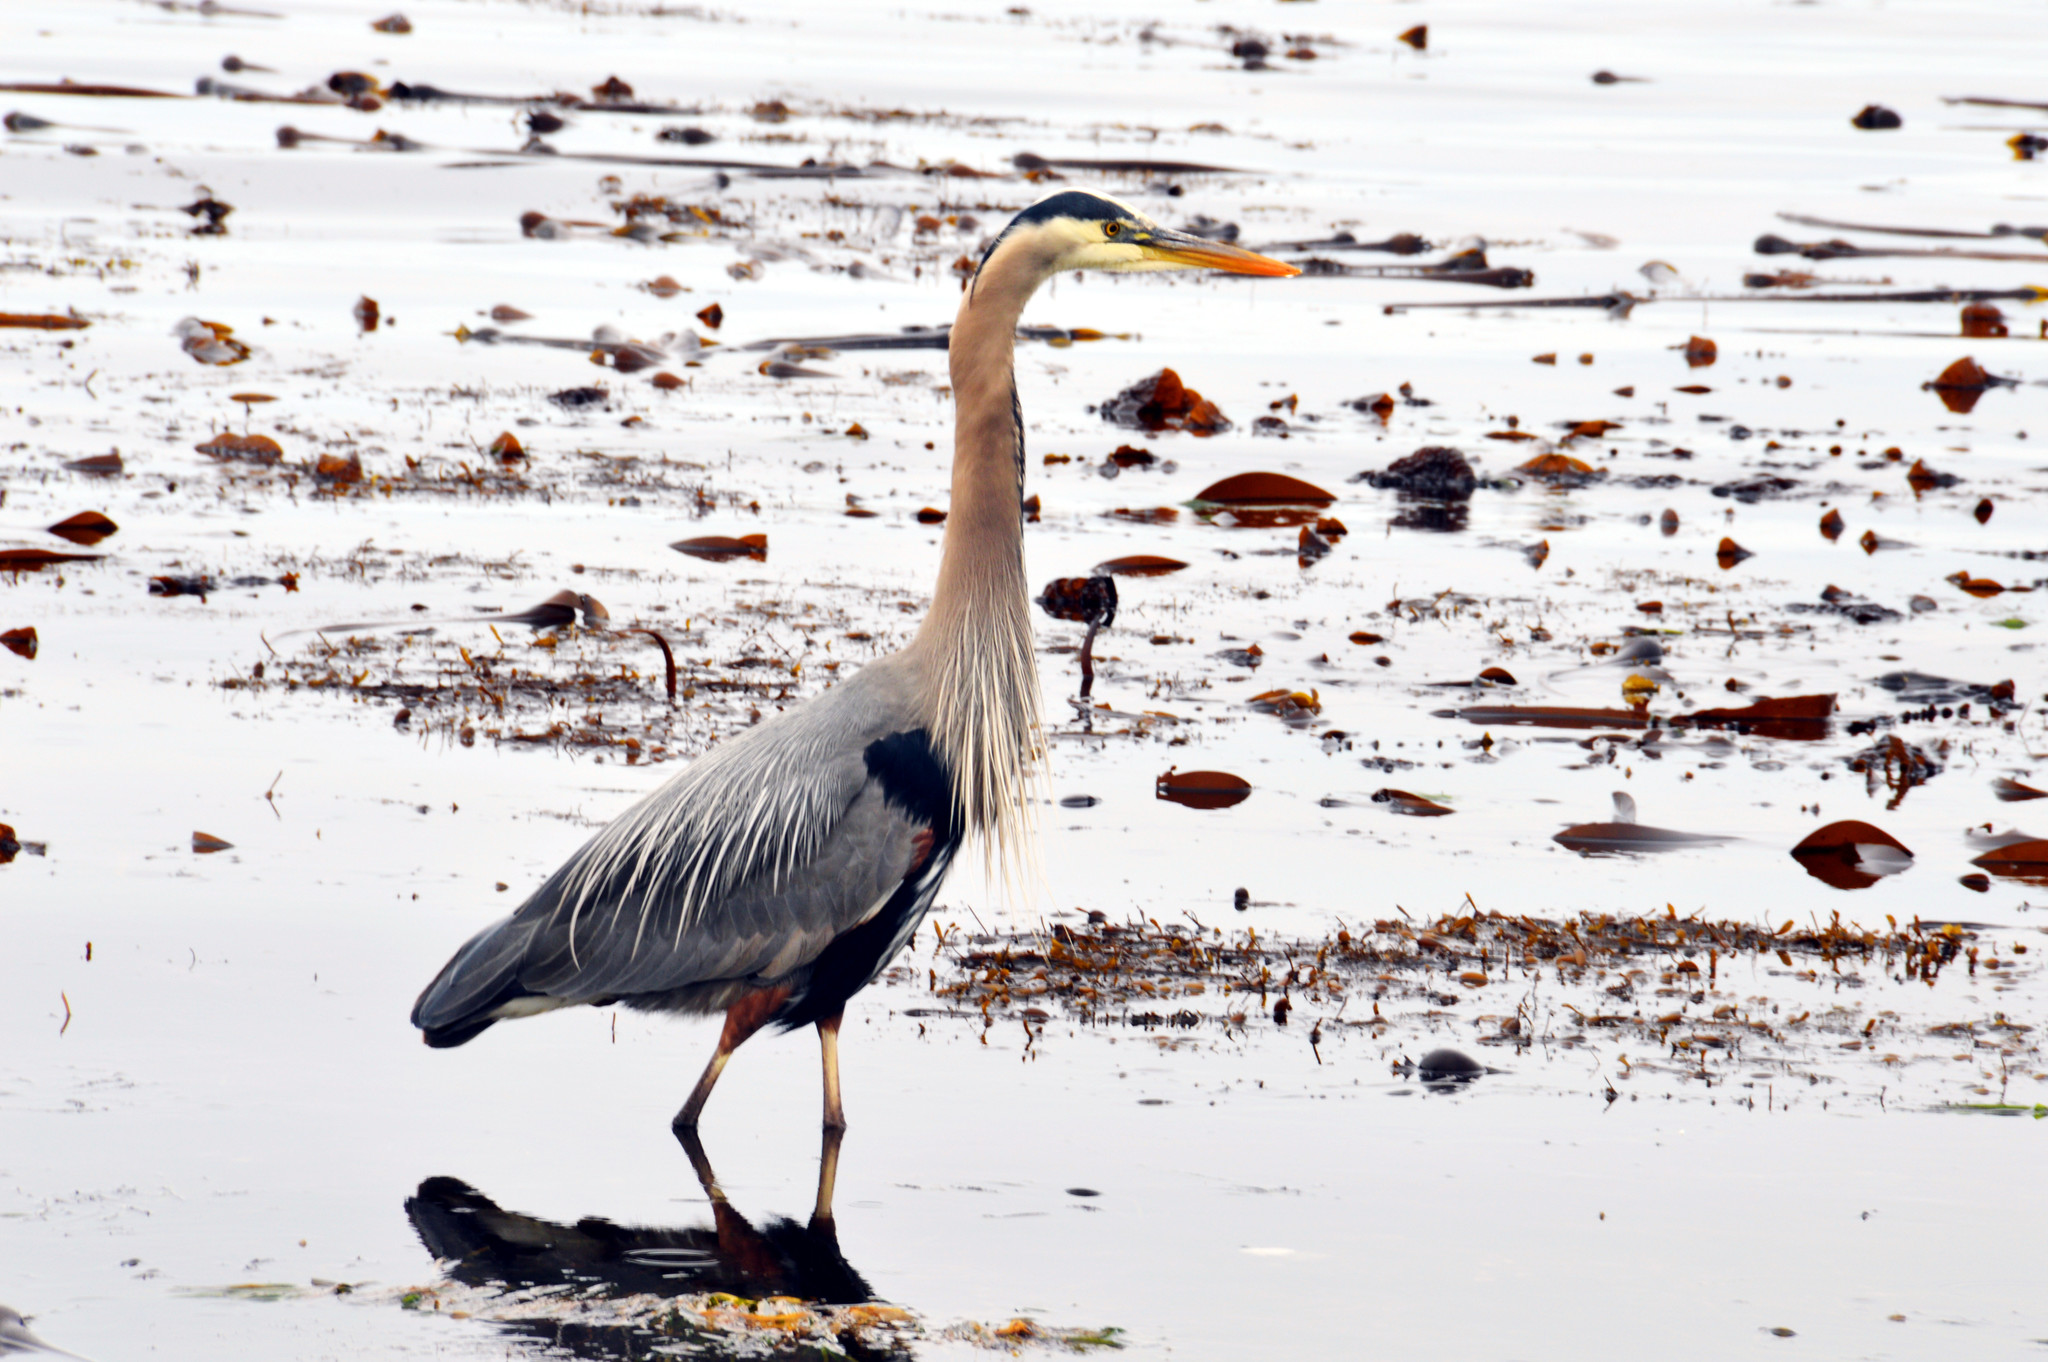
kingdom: Animalia
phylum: Chordata
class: Aves
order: Pelecaniformes
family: Ardeidae
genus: Ardea
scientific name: Ardea herodias
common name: Great blue heron
